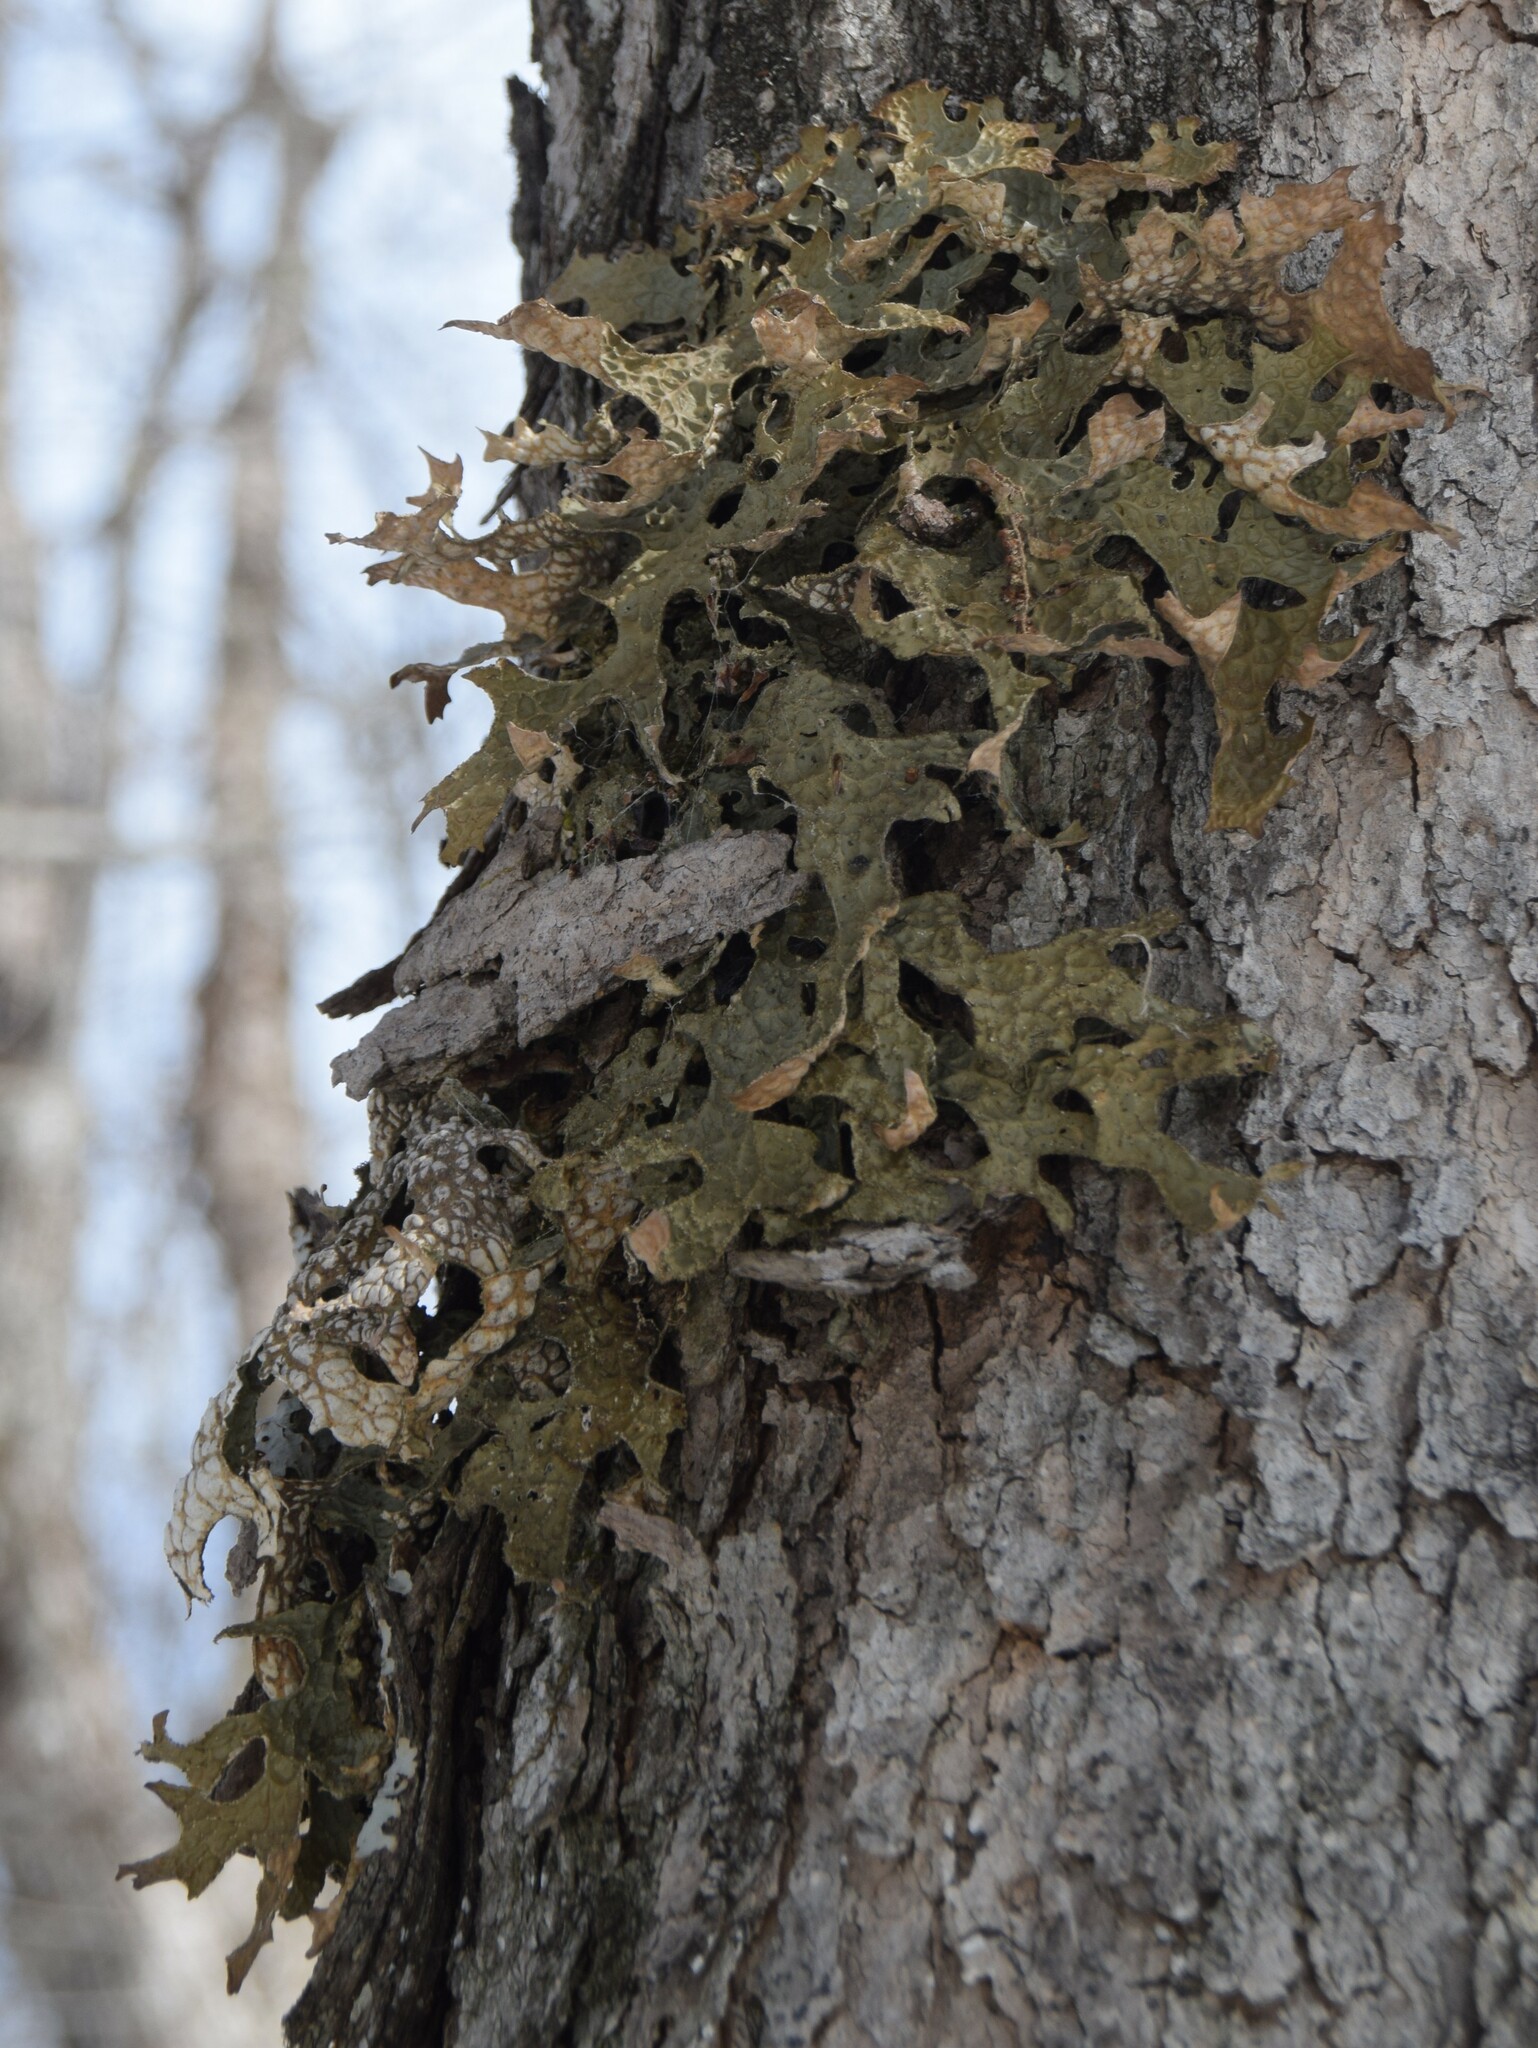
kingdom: Fungi
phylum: Ascomycota
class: Lecanoromycetes
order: Peltigerales
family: Lobariaceae
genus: Lobaria
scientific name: Lobaria pulmonaria
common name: Lungwort
